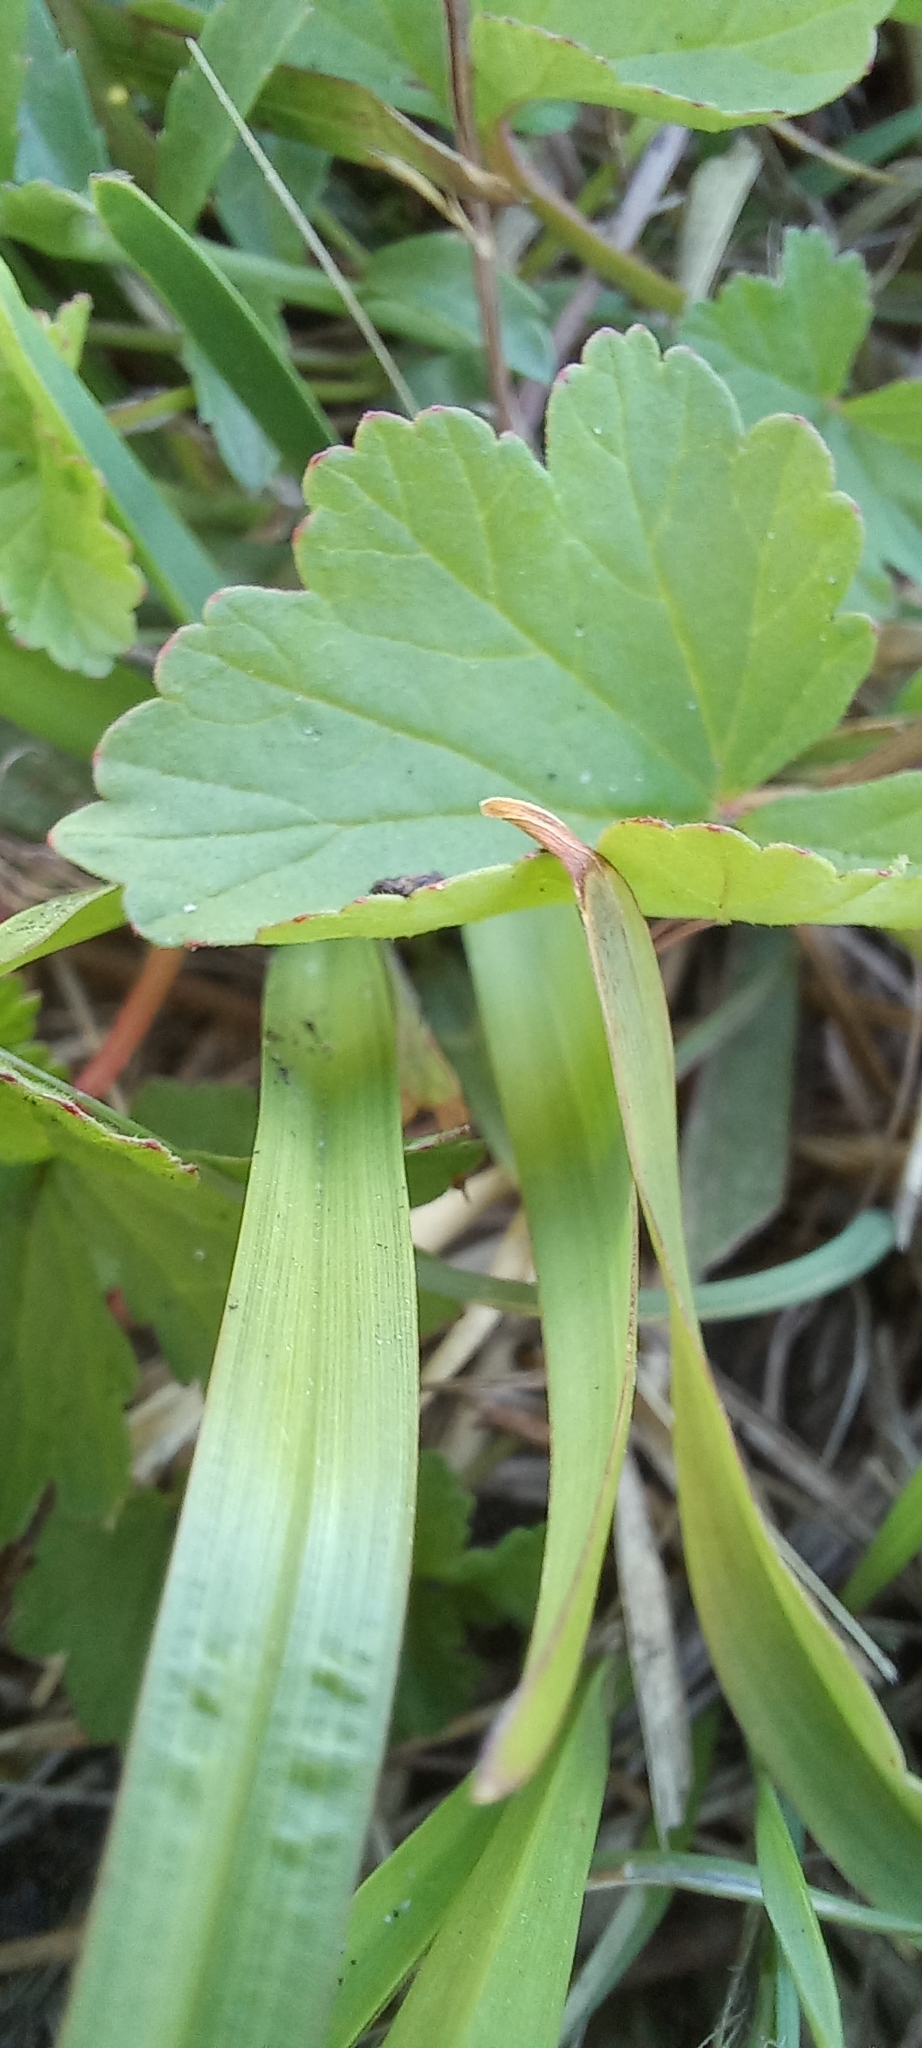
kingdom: Plantae
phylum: Tracheophyta
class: Magnoliopsida
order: Geraniales
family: Geraniaceae
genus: Pelargonium
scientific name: Pelargonium grossularioides
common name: Gooseberry geranium
